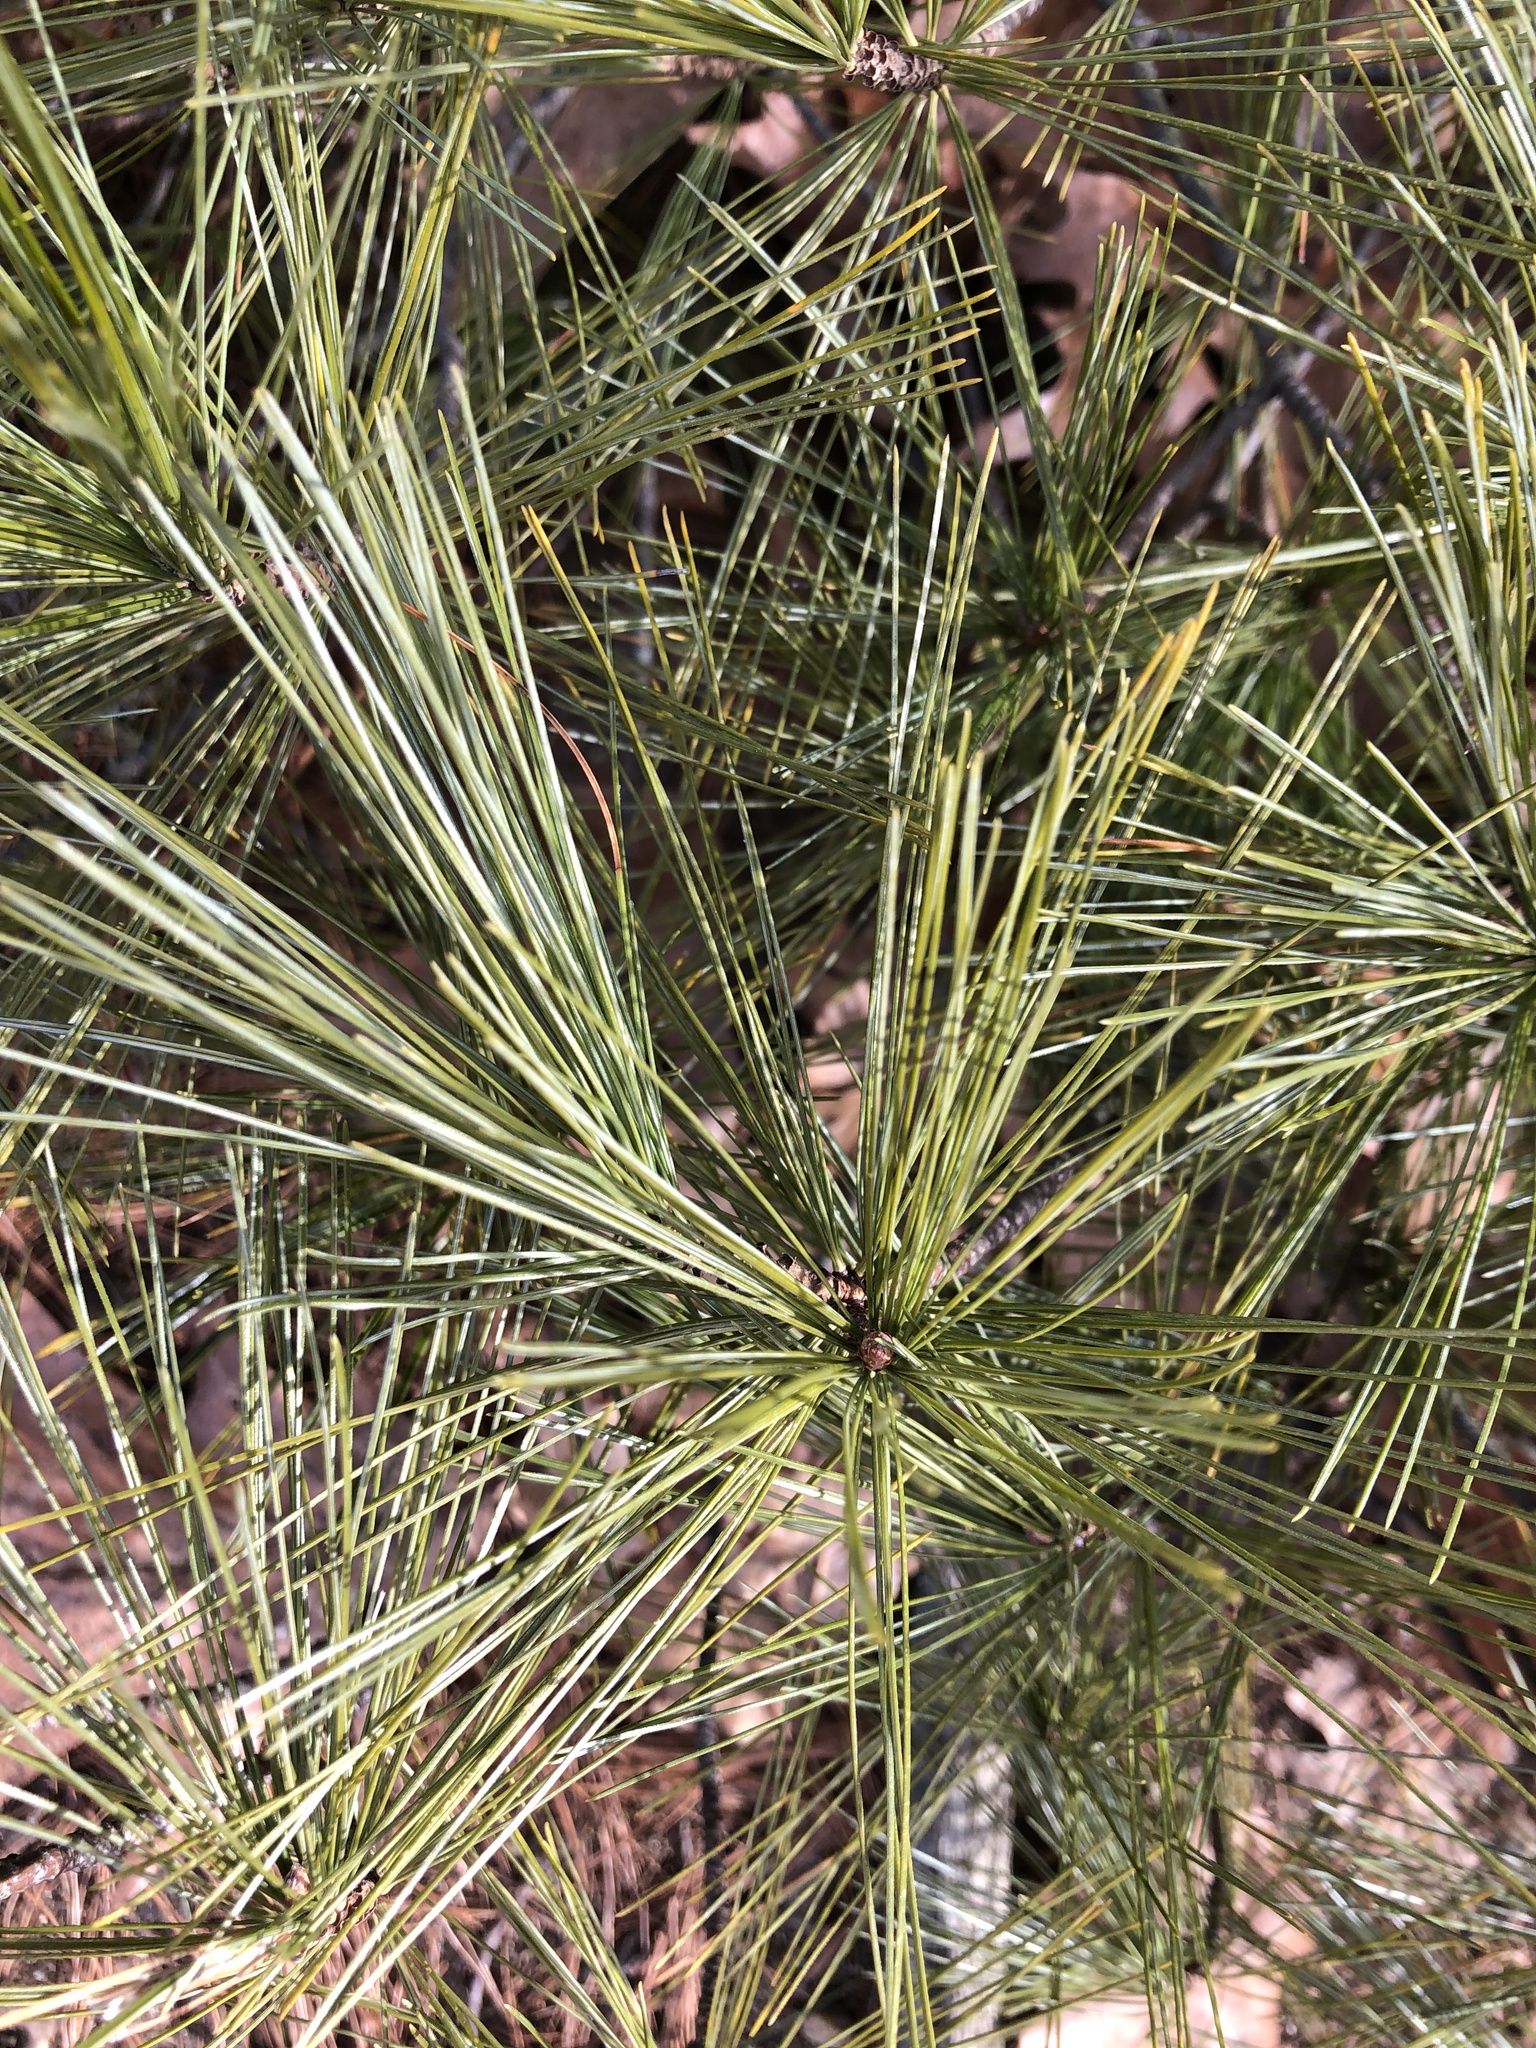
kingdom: Plantae
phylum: Tracheophyta
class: Pinopsida
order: Pinales
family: Pinaceae
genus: Pinus
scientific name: Pinus strobus
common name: Weymouth pine
